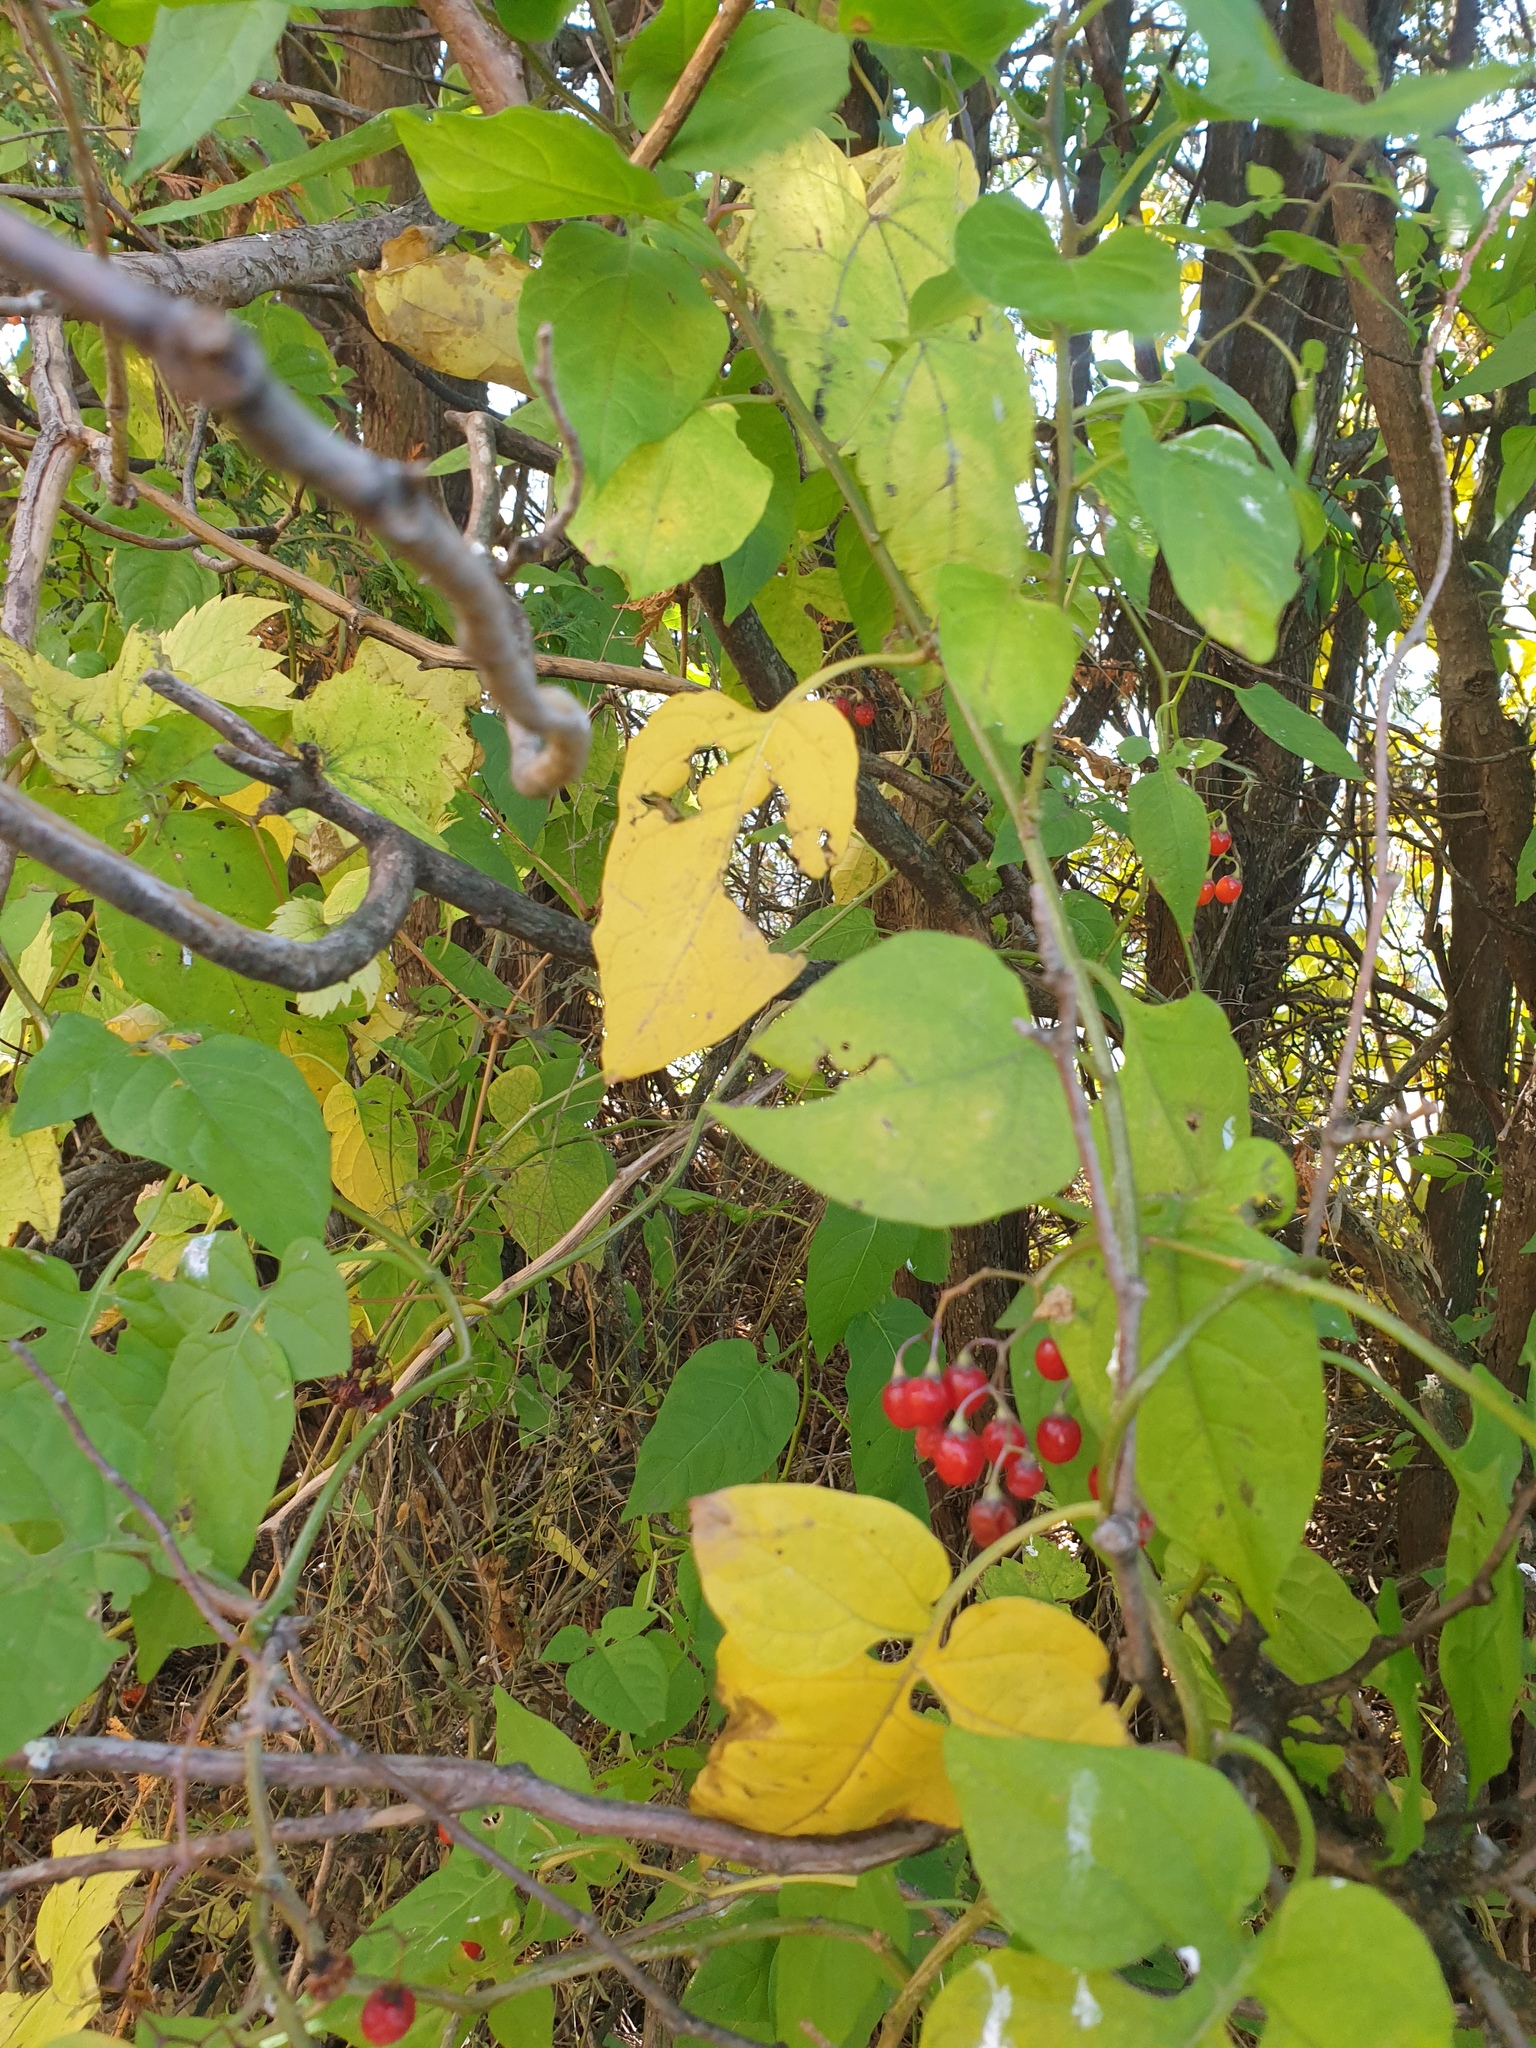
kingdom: Plantae
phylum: Tracheophyta
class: Magnoliopsida
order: Solanales
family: Solanaceae
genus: Solanum
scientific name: Solanum dulcamara
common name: Climbing nightshade
